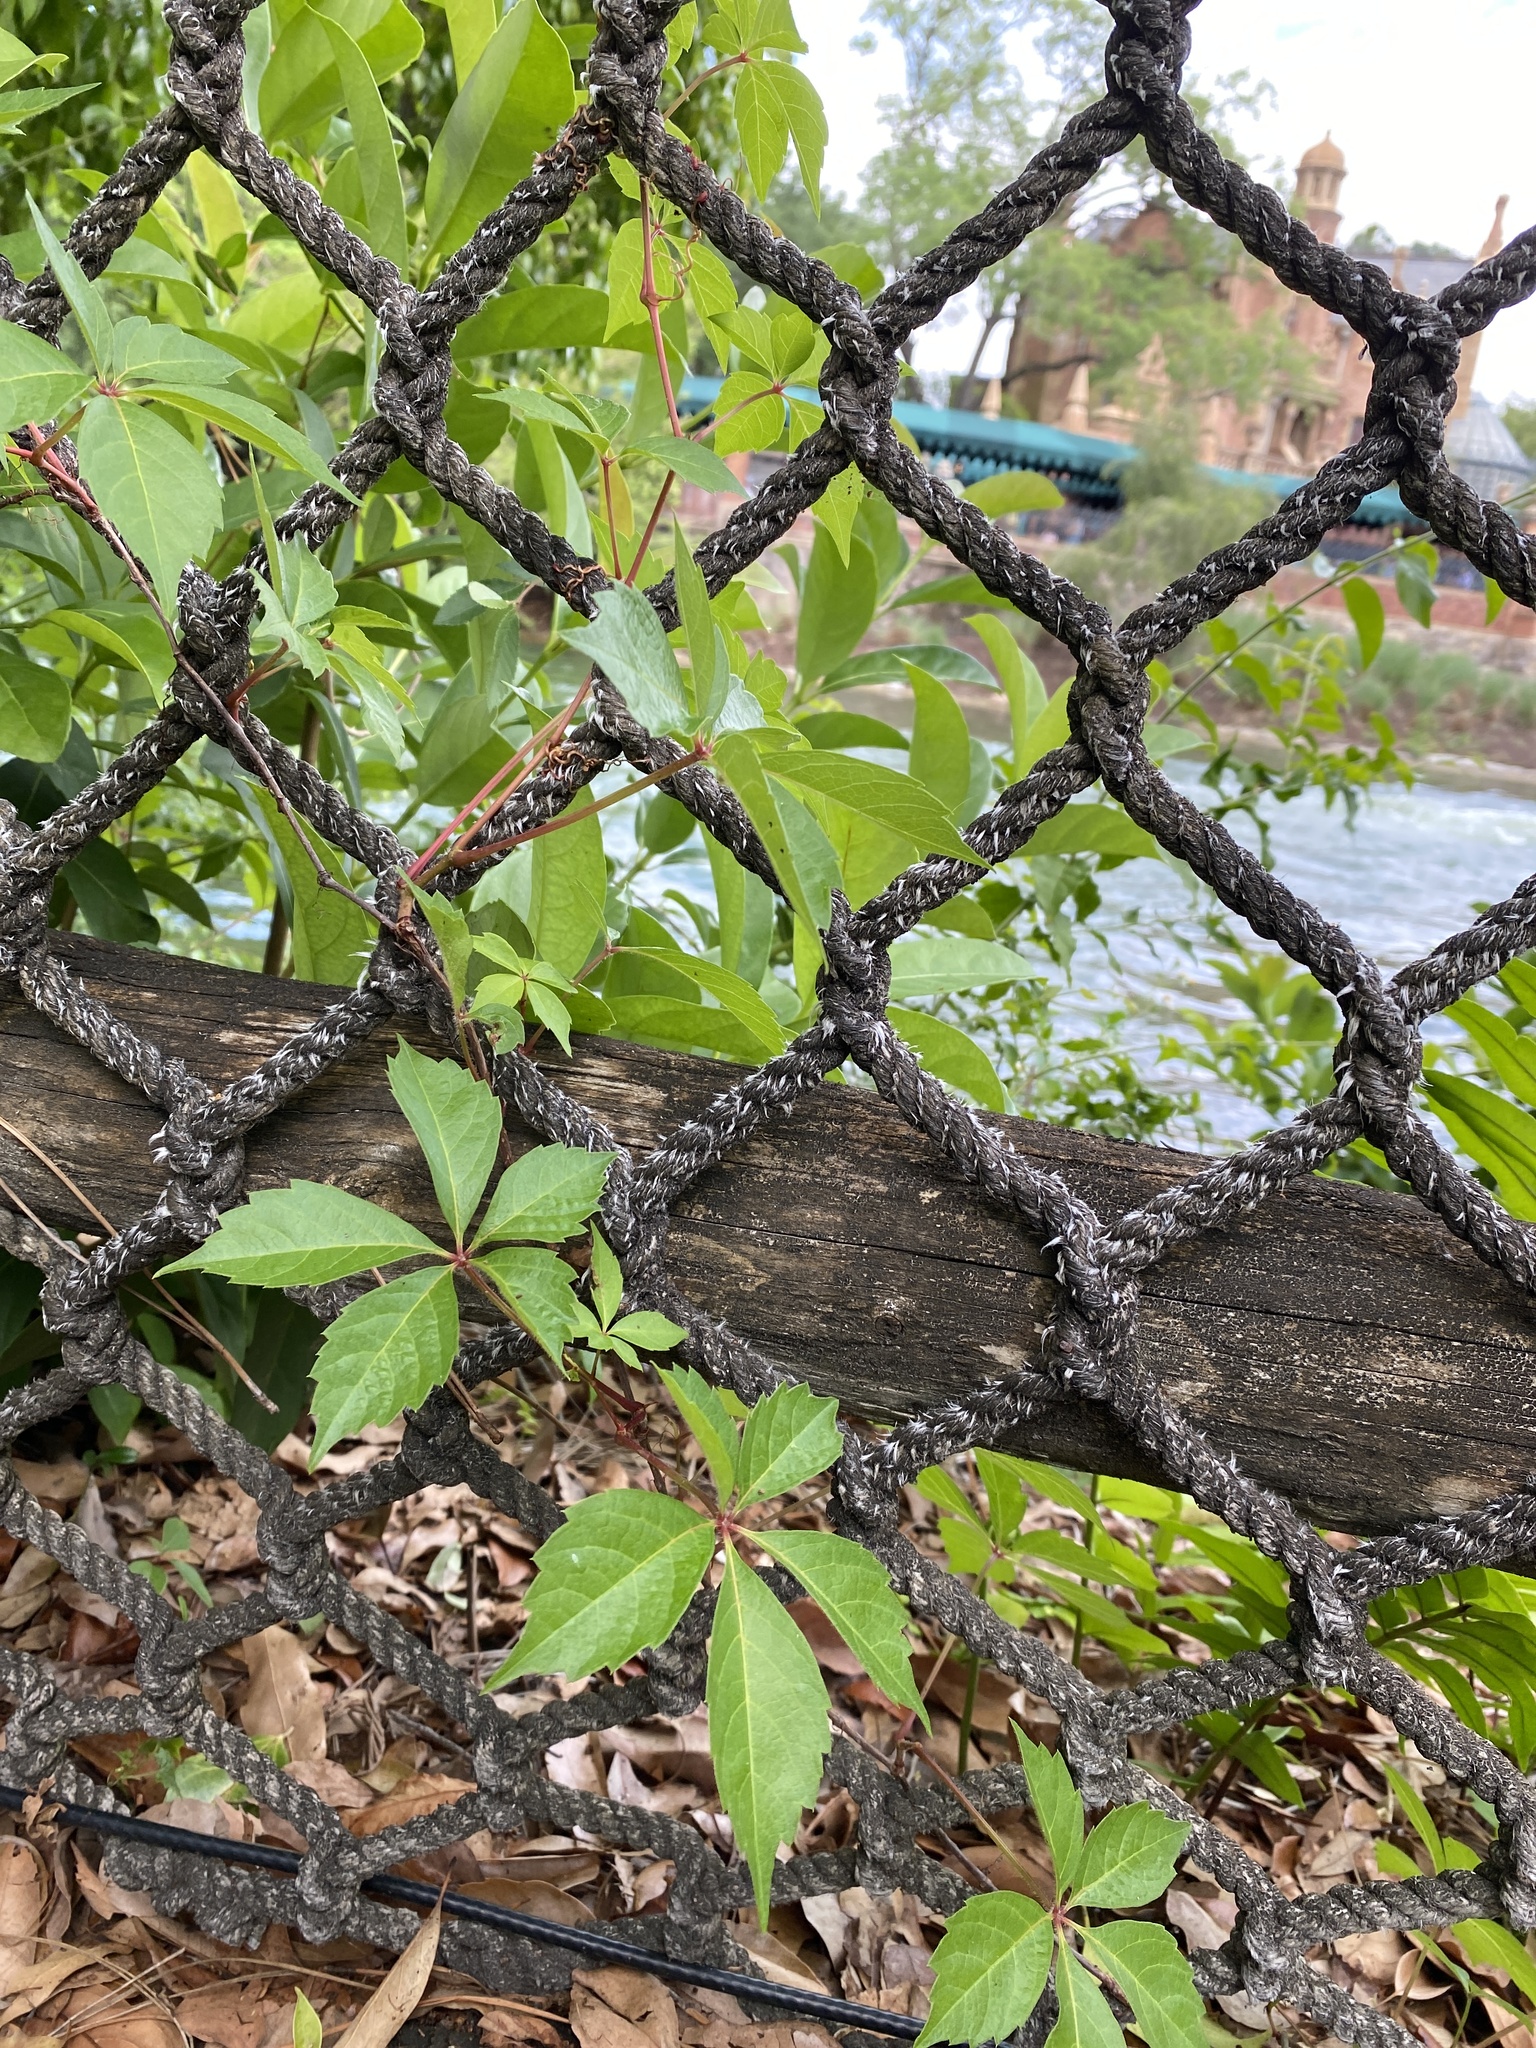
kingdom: Plantae
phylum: Tracheophyta
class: Magnoliopsida
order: Vitales
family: Vitaceae
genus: Parthenocissus
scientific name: Parthenocissus quinquefolia
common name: Virginia-creeper
